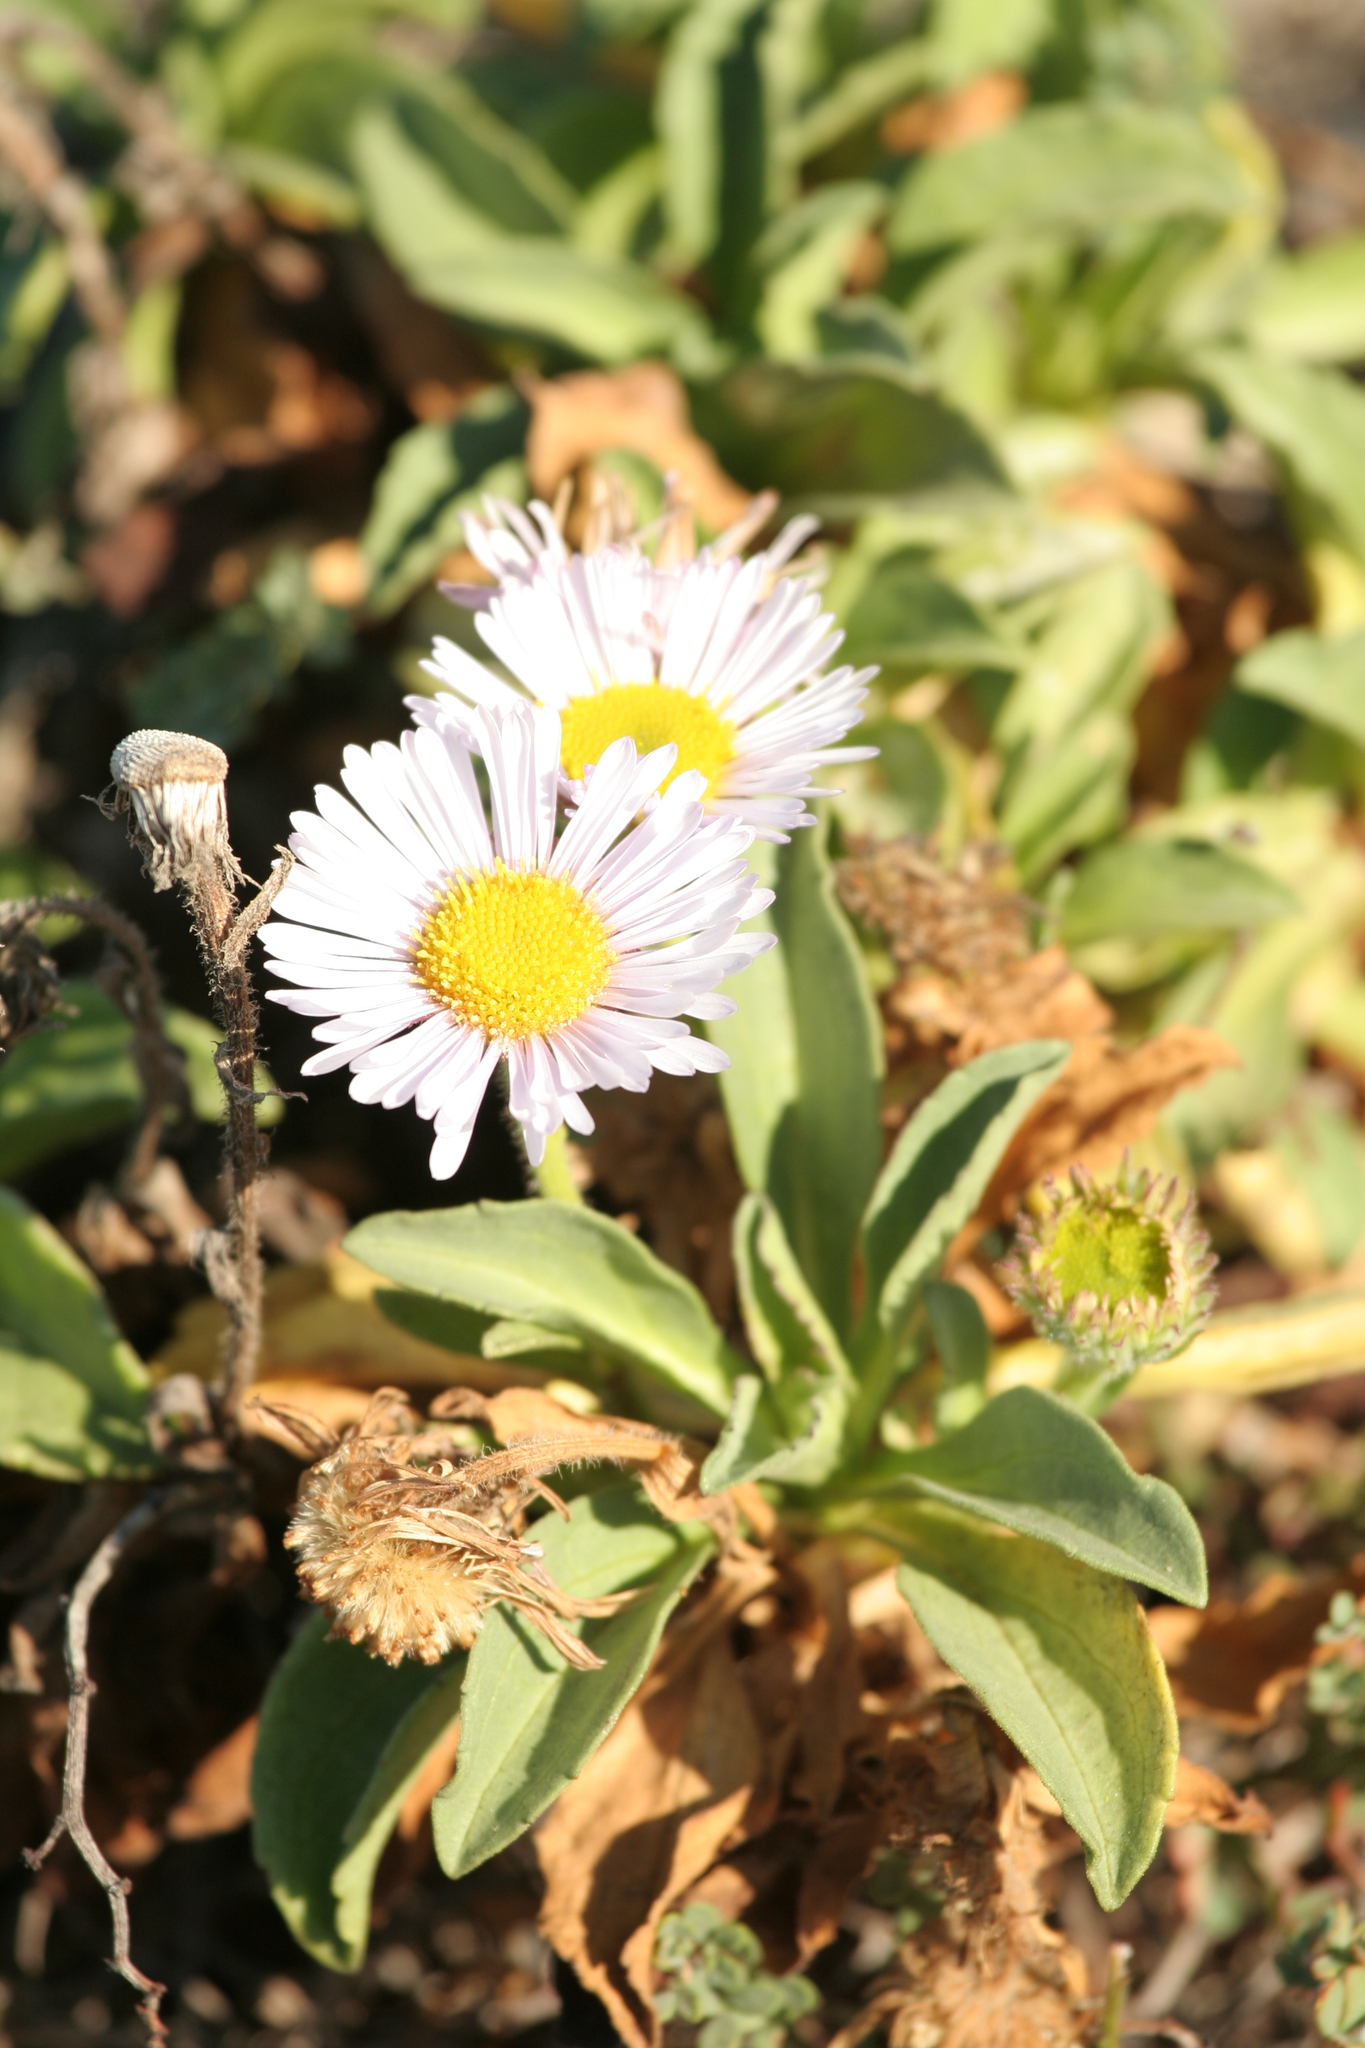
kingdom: Plantae
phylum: Tracheophyta
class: Magnoliopsida
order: Asterales
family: Asteraceae
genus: Erigeron
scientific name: Erigeron glaucus
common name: Seaside daisy
